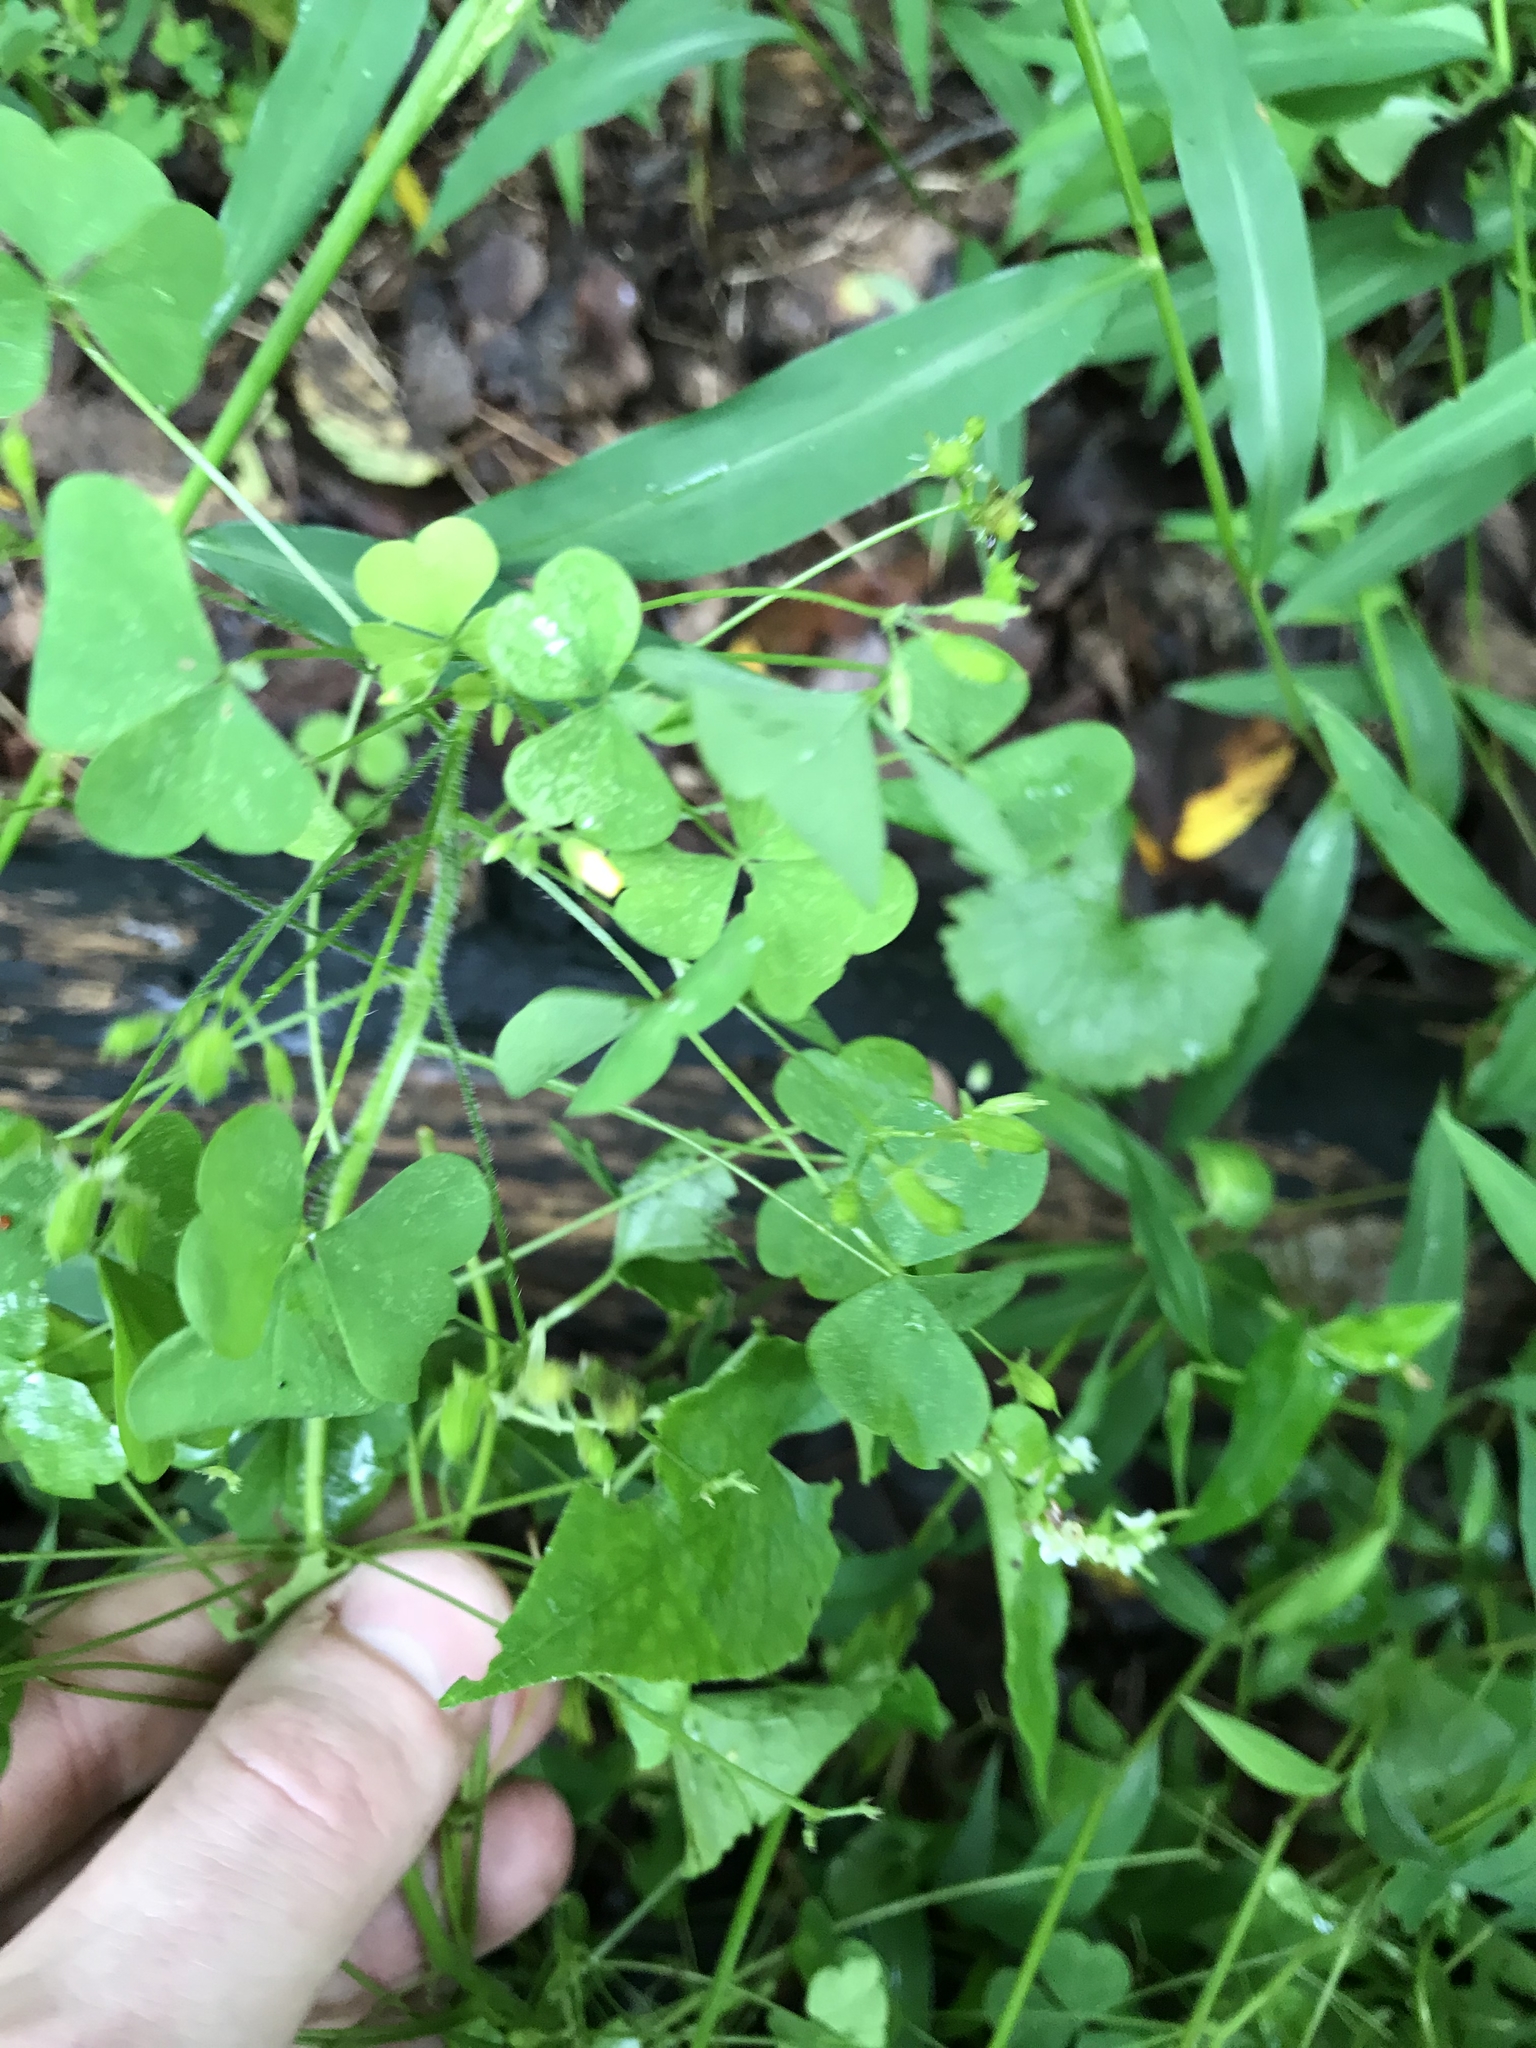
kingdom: Plantae
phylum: Tracheophyta
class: Magnoliopsida
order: Oxalidales
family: Oxalidaceae
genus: Oxalis
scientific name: Oxalis stricta
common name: Upright yellow-sorrel
